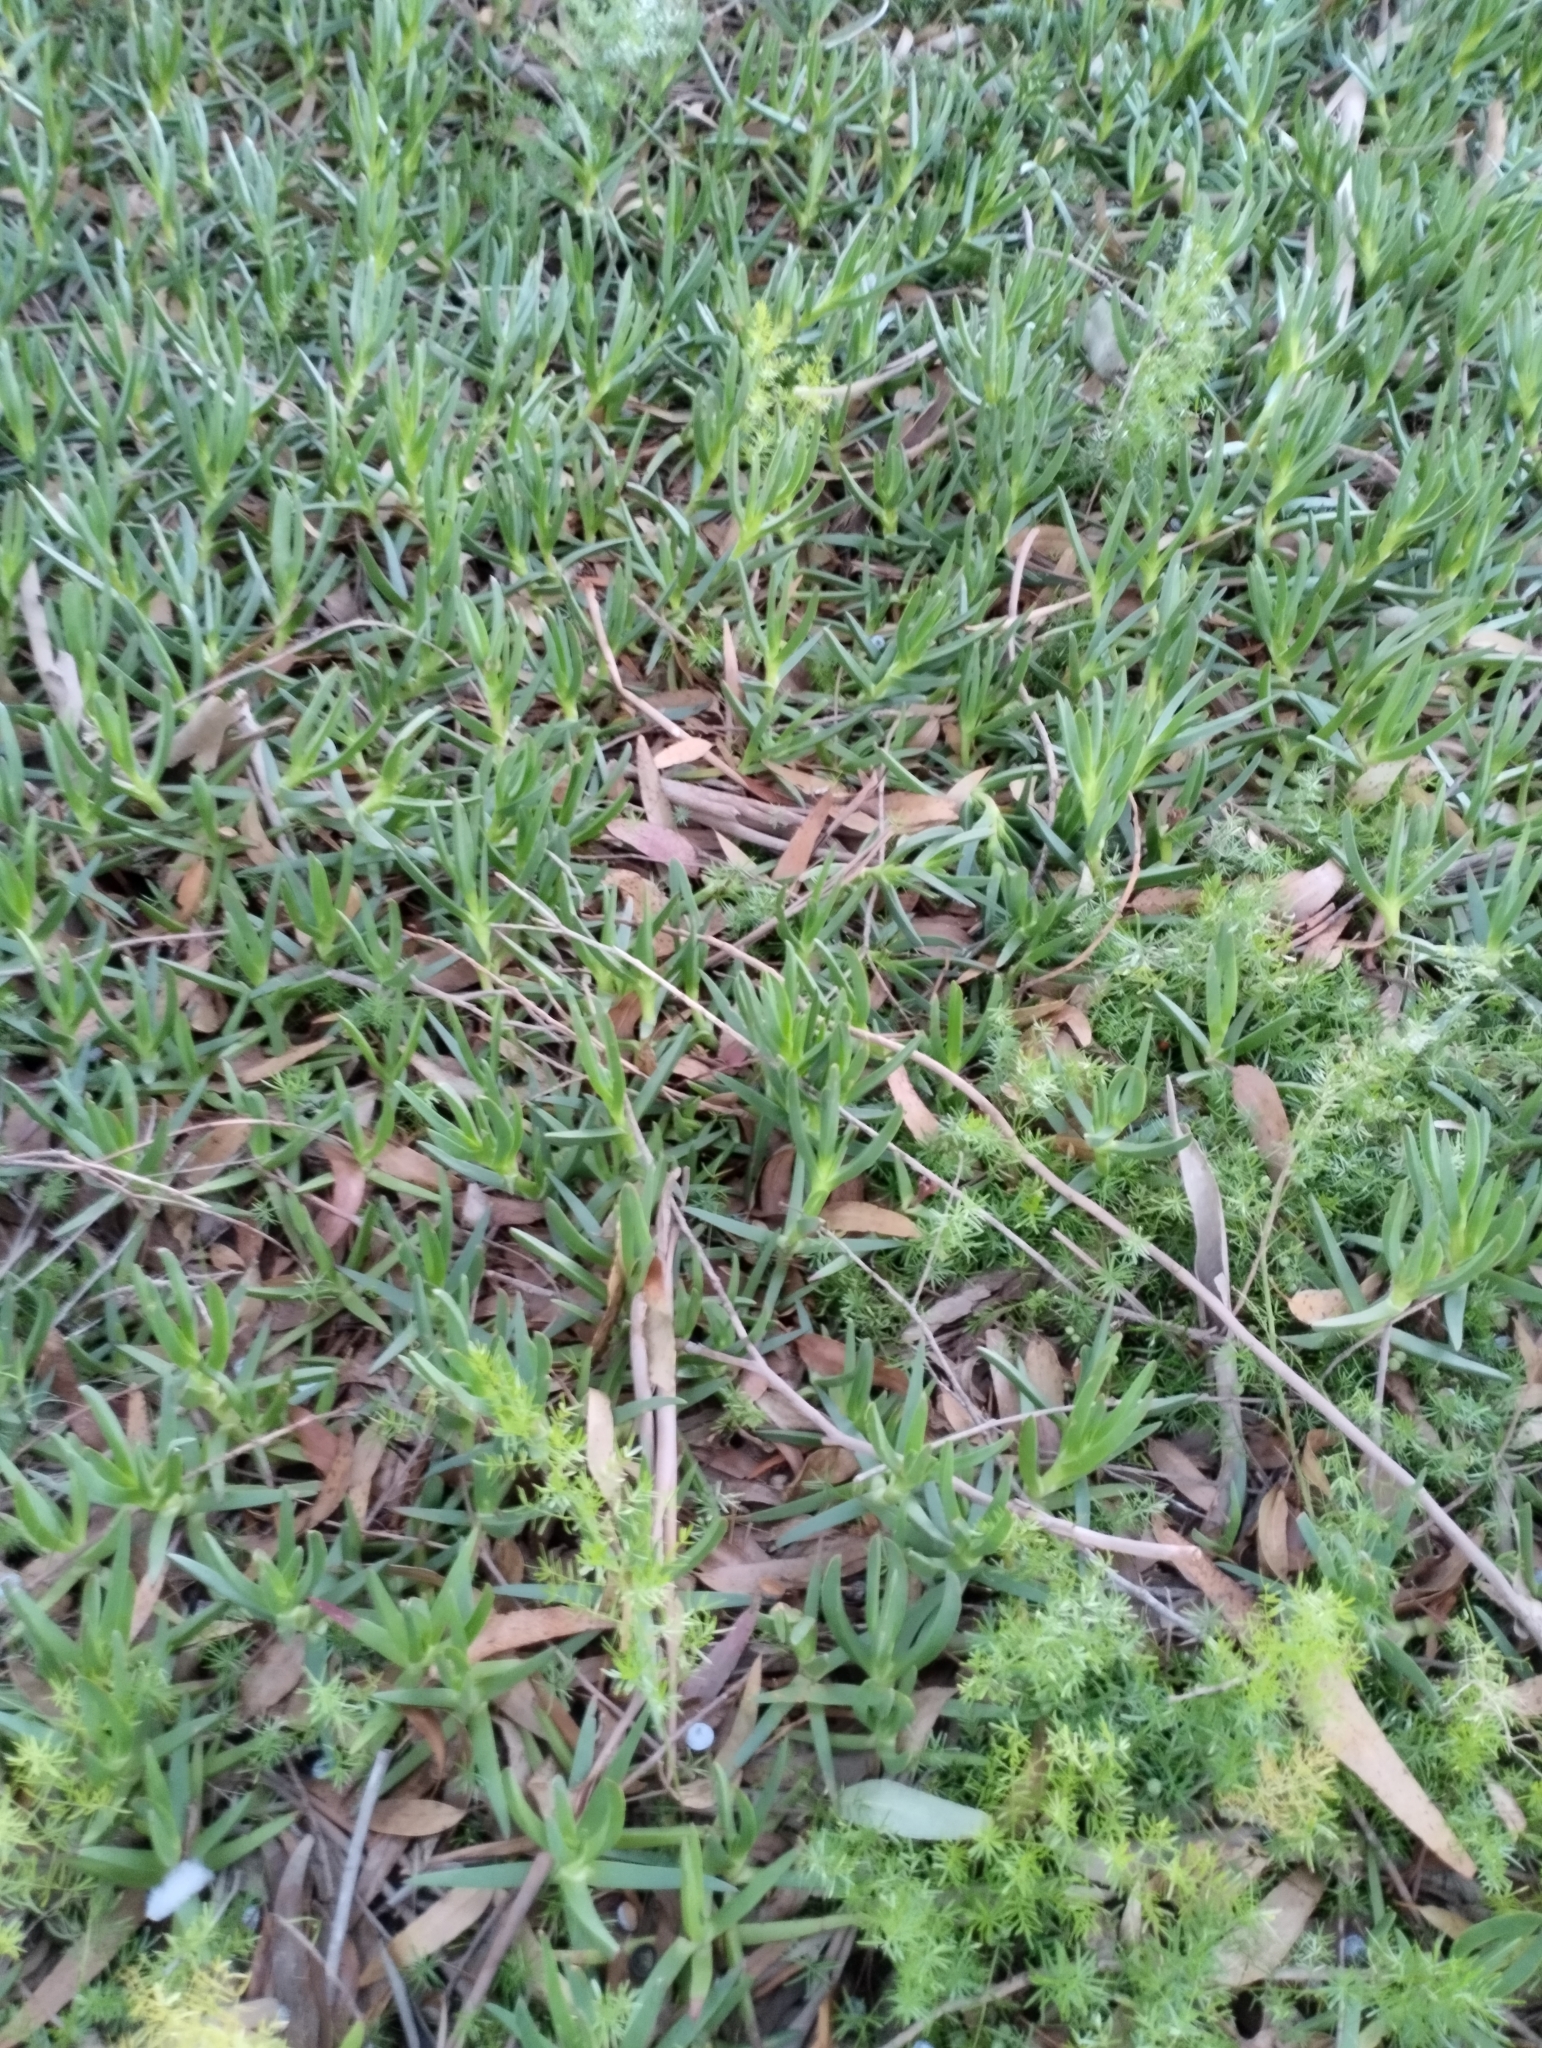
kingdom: Plantae
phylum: Tracheophyta
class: Magnoliopsida
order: Caryophyllales
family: Aizoaceae
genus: Carpobrotus
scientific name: Carpobrotus edulis
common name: Hottentot-fig
